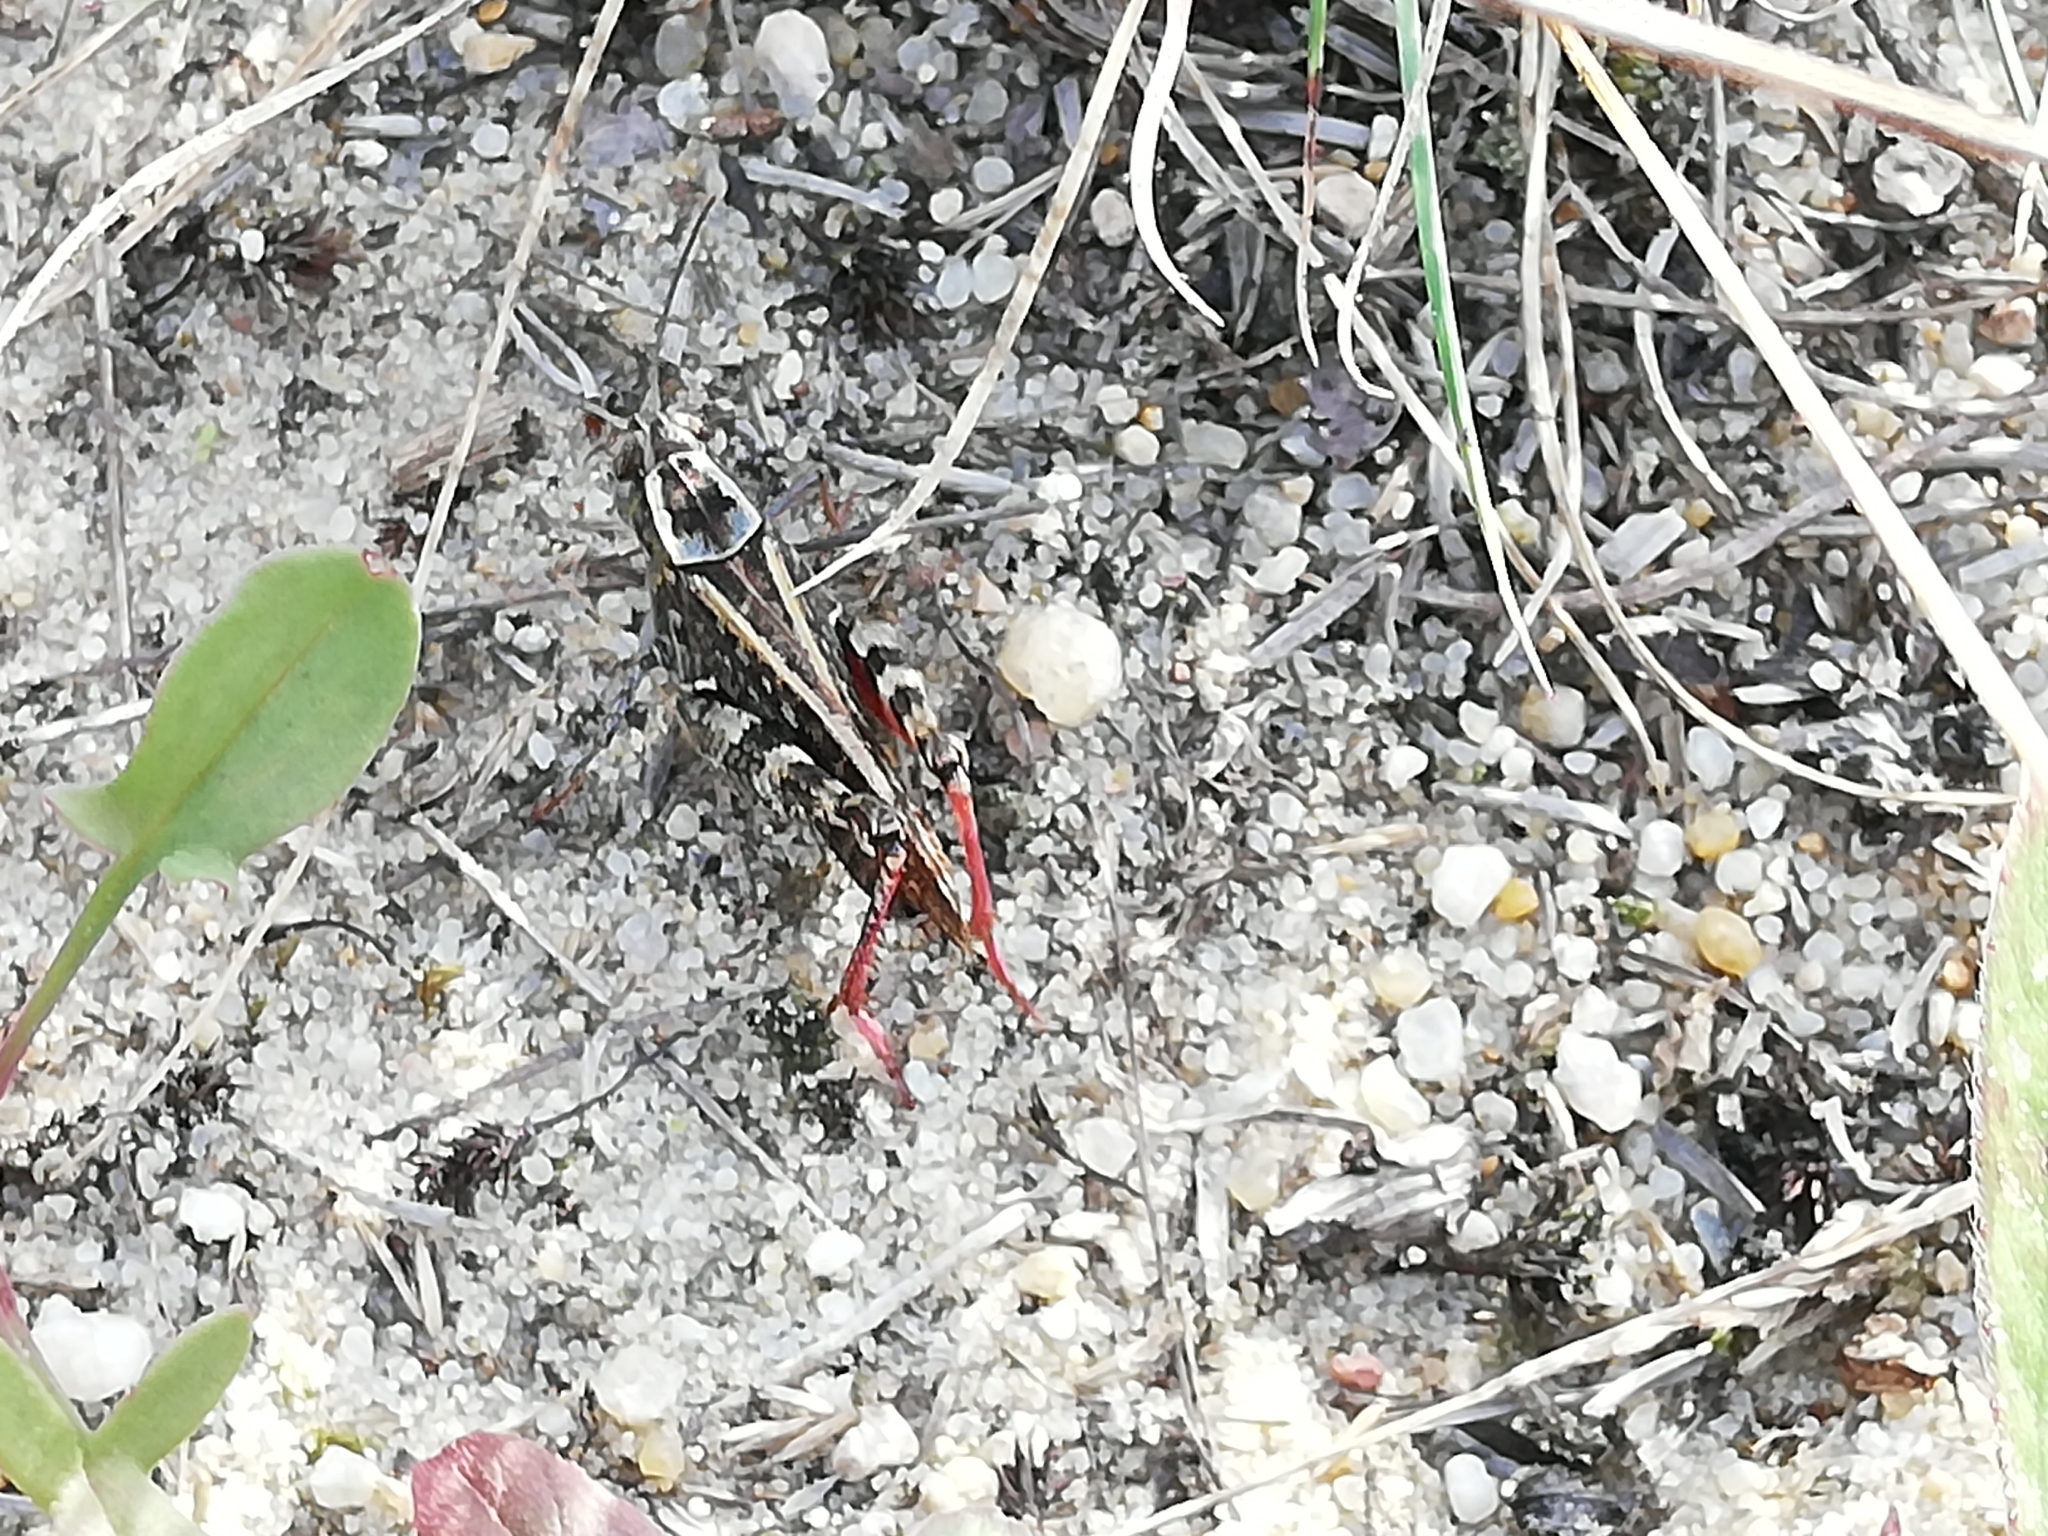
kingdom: Animalia
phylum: Arthropoda
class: Insecta
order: Orthoptera
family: Acrididae
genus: Calliptamus
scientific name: Calliptamus italicus
